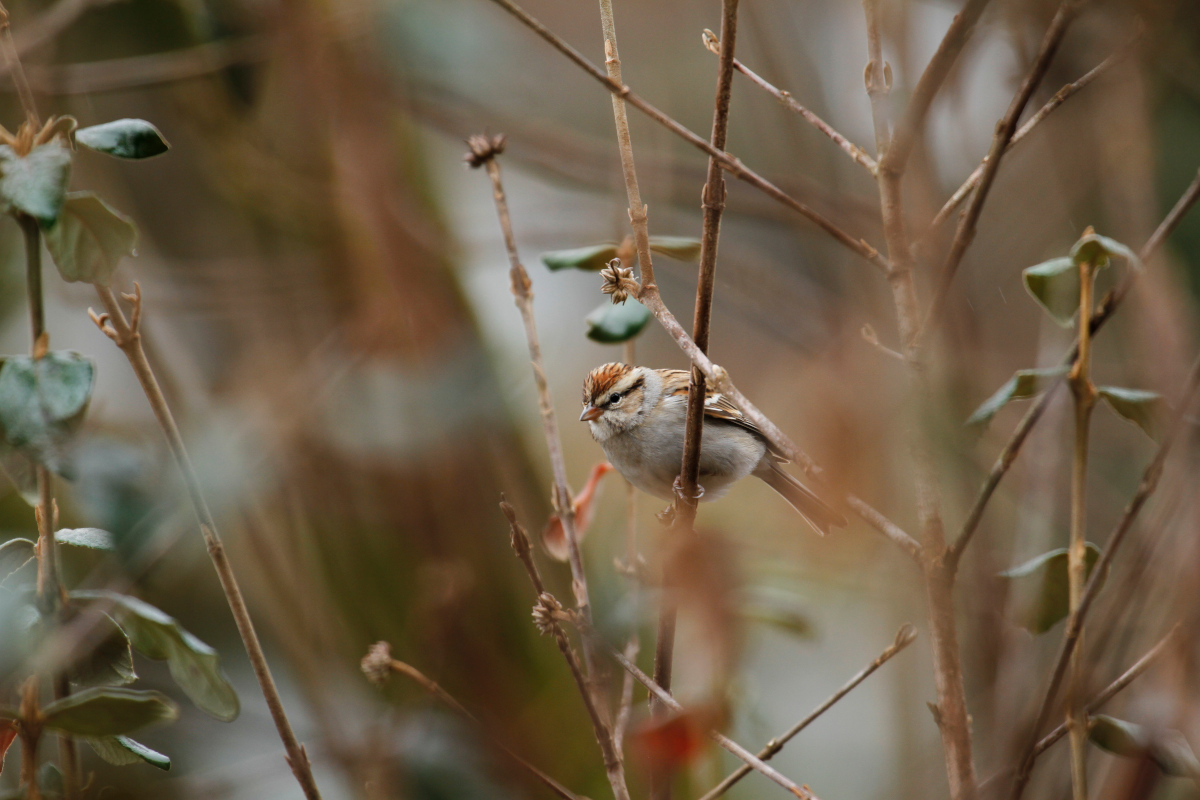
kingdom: Animalia
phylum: Chordata
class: Aves
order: Passeriformes
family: Passerellidae
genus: Spizella
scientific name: Spizella passerina
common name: Chipping sparrow
